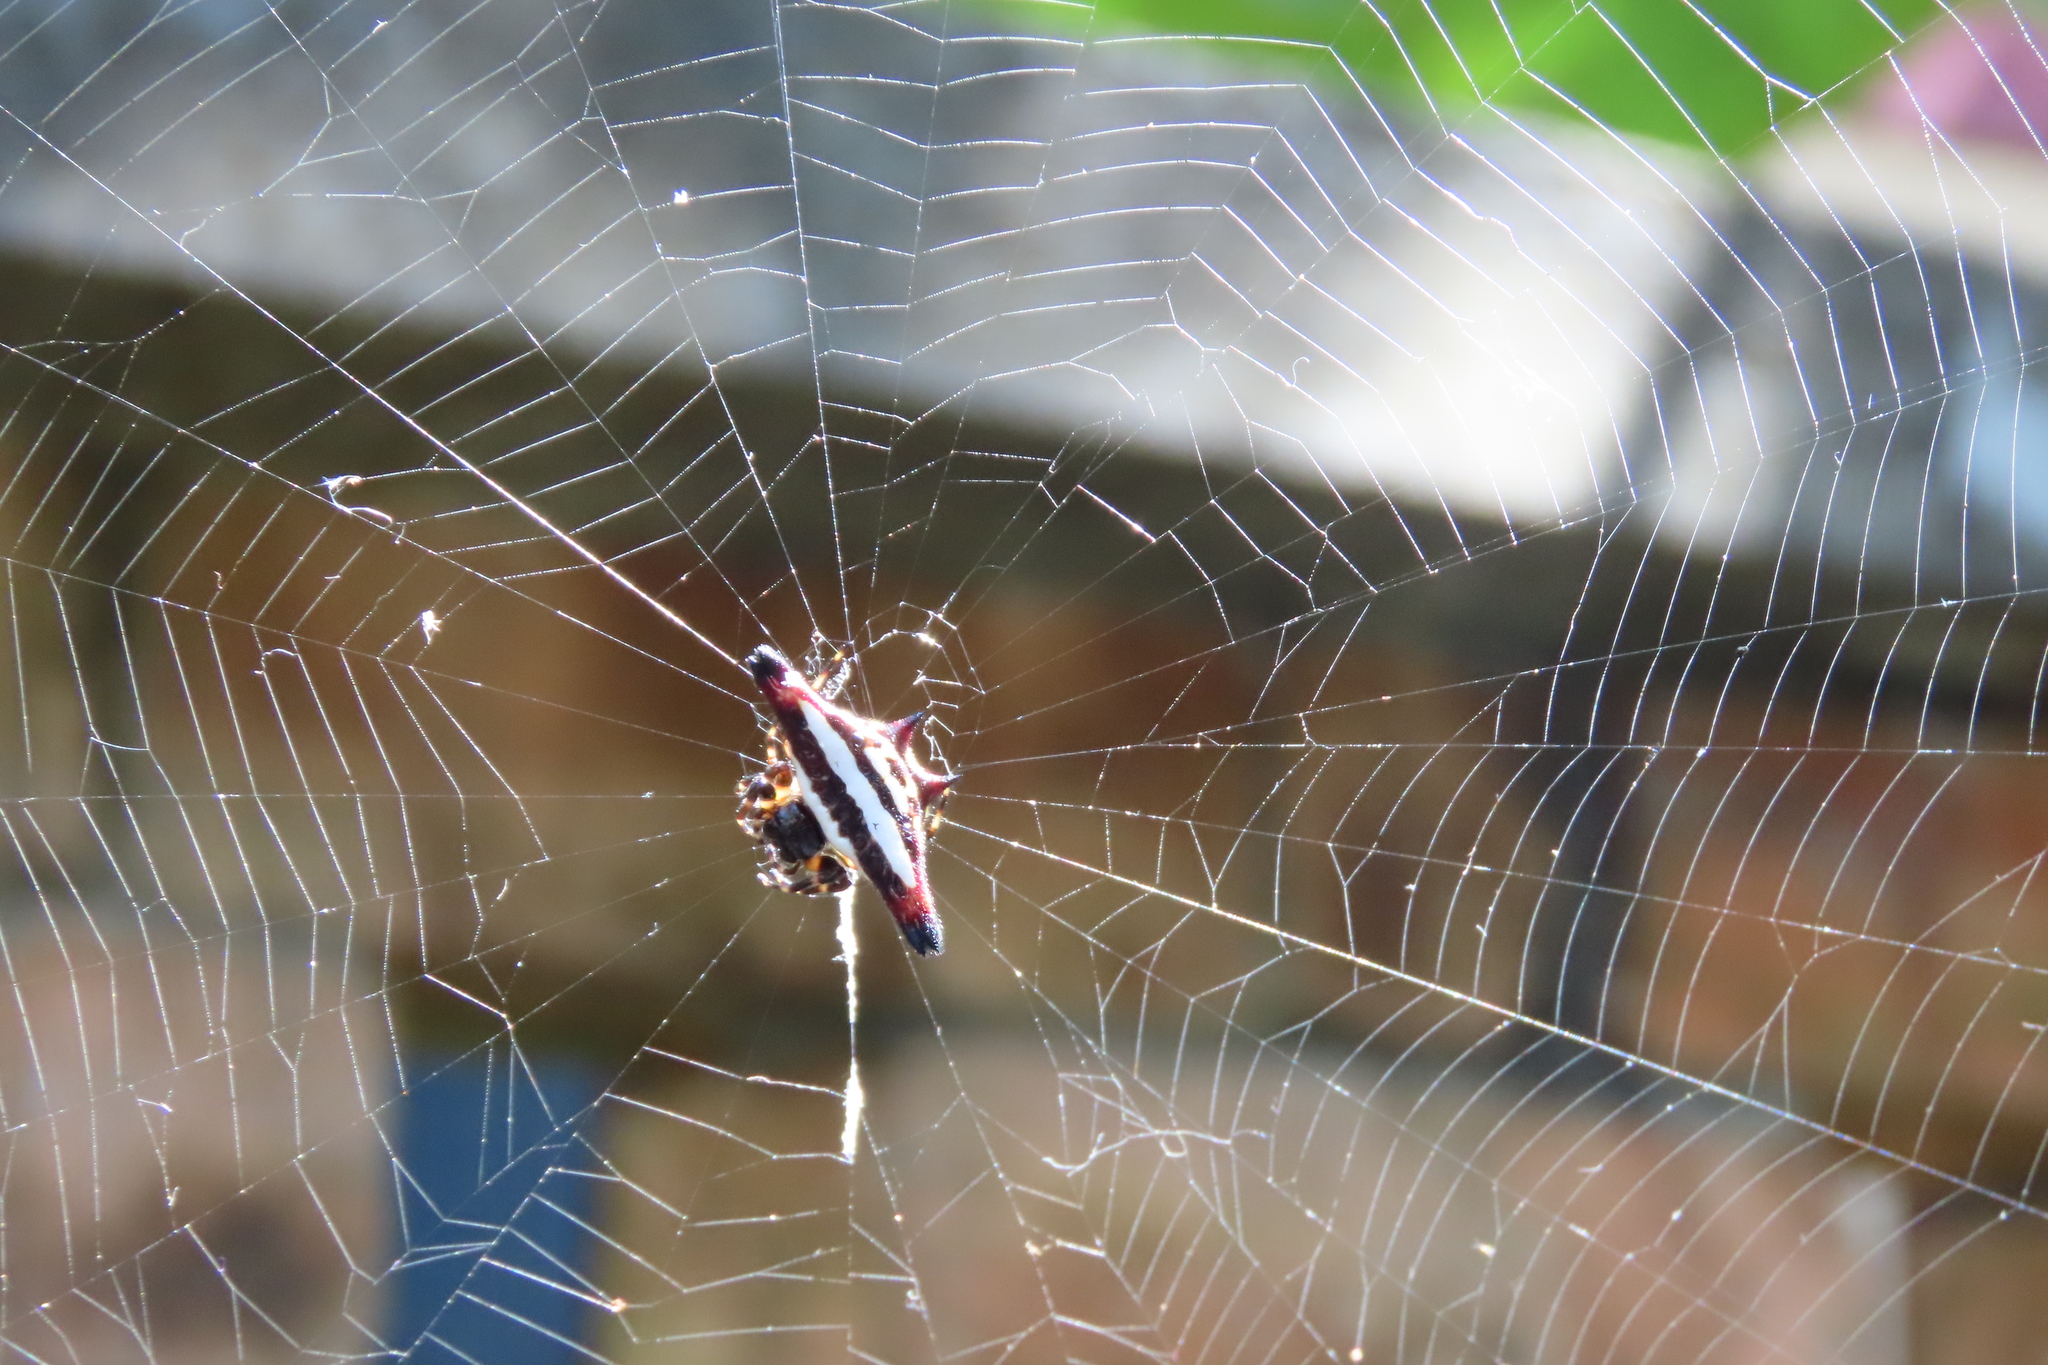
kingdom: Animalia
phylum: Arthropoda
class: Arachnida
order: Araneae
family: Araneidae
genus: Gasteracantha
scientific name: Gasteracantha geminata
